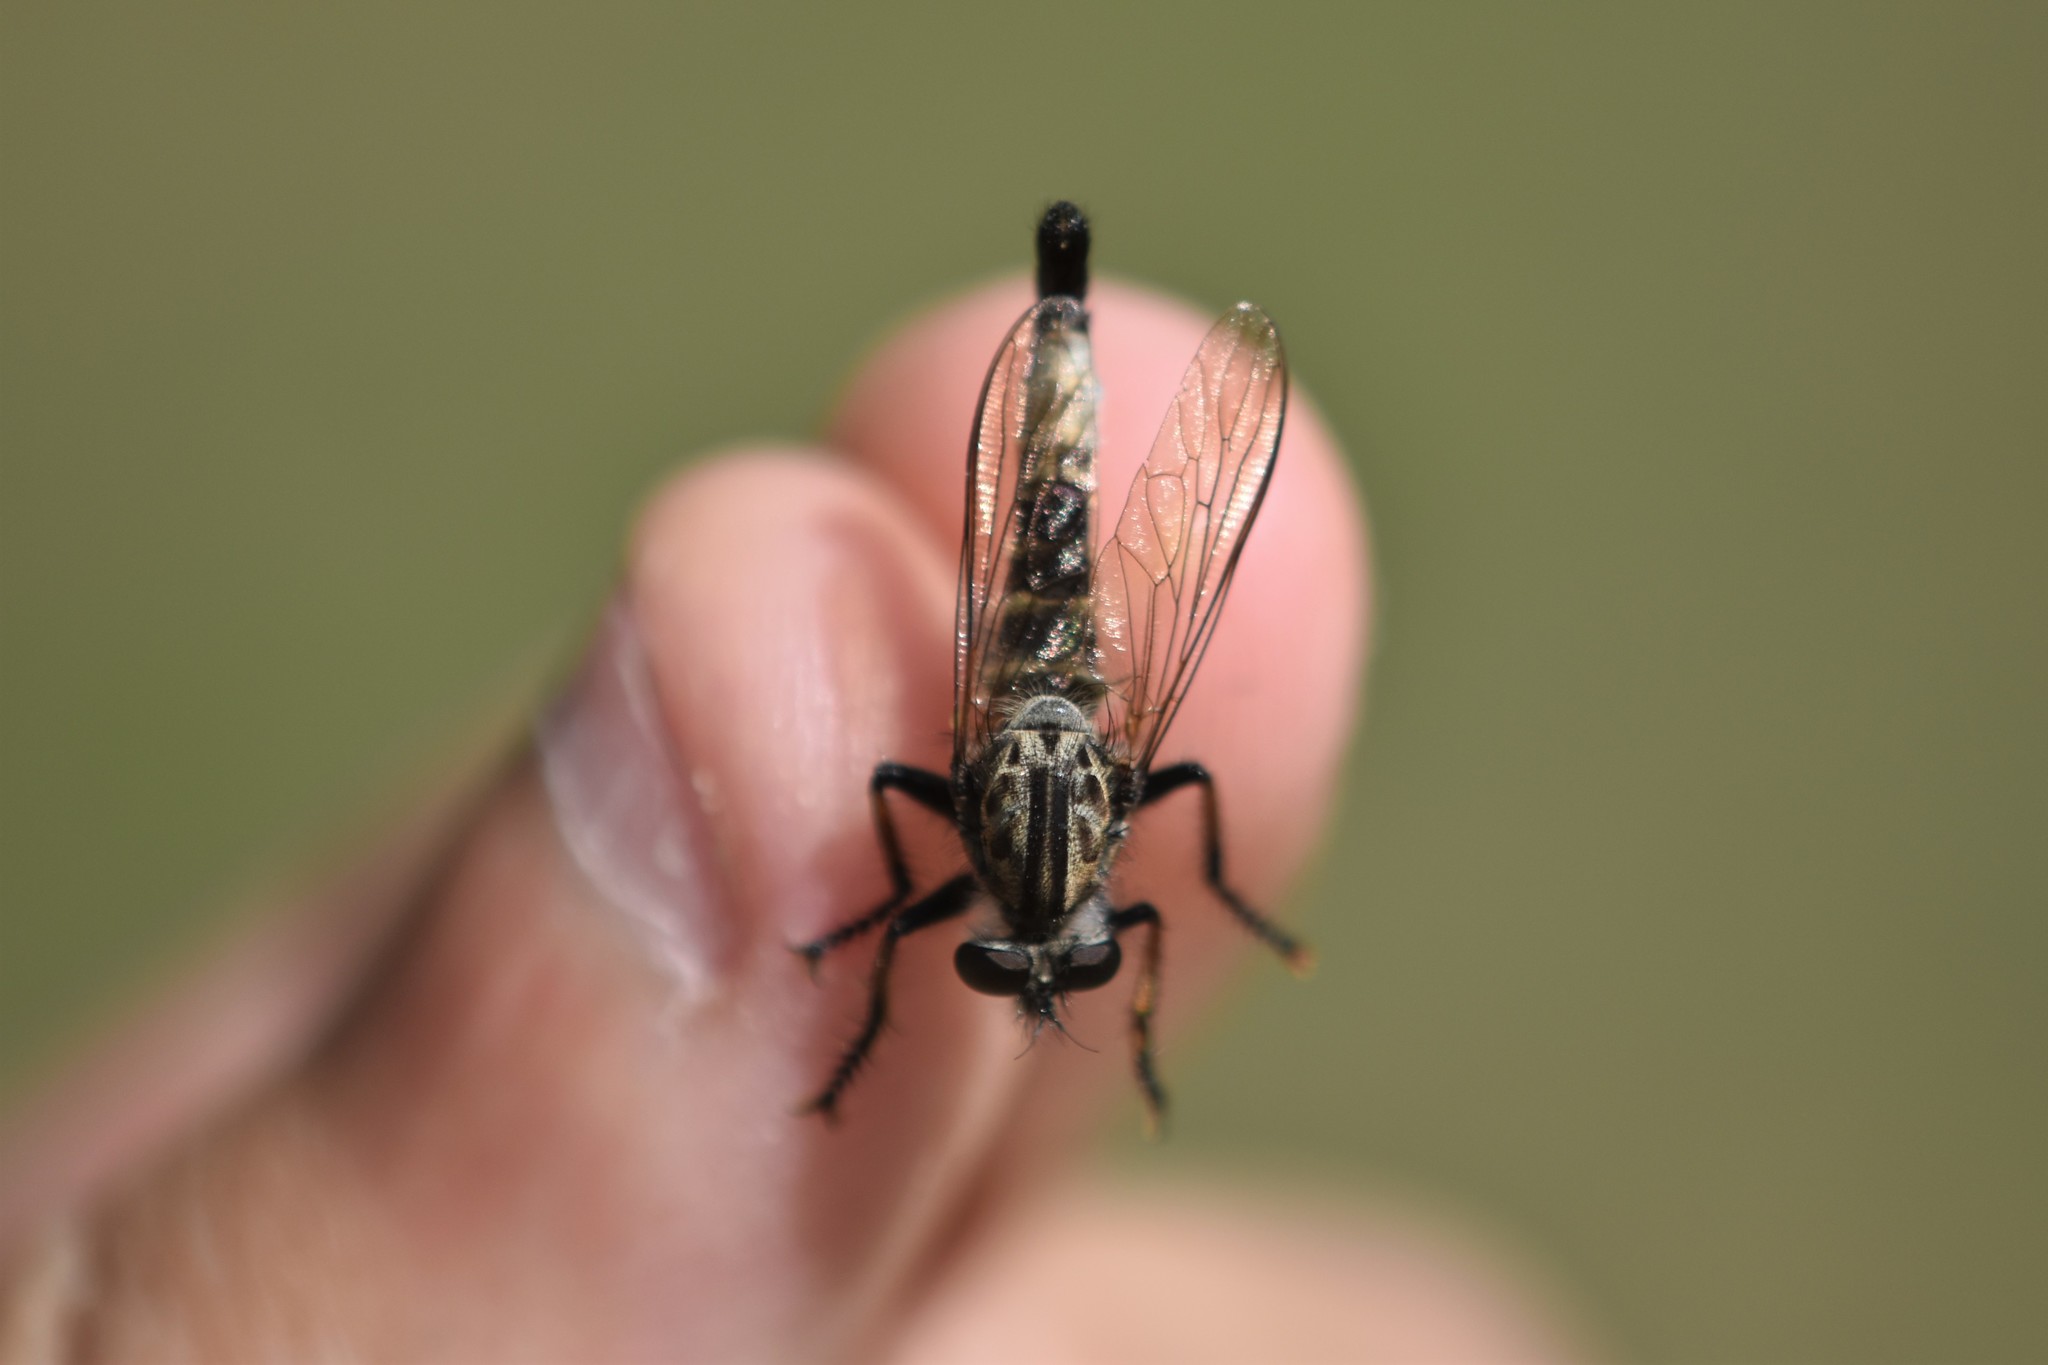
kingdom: Animalia
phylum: Arthropoda
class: Insecta
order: Diptera
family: Asilidae
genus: Efferia
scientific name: Efferia aestuans
